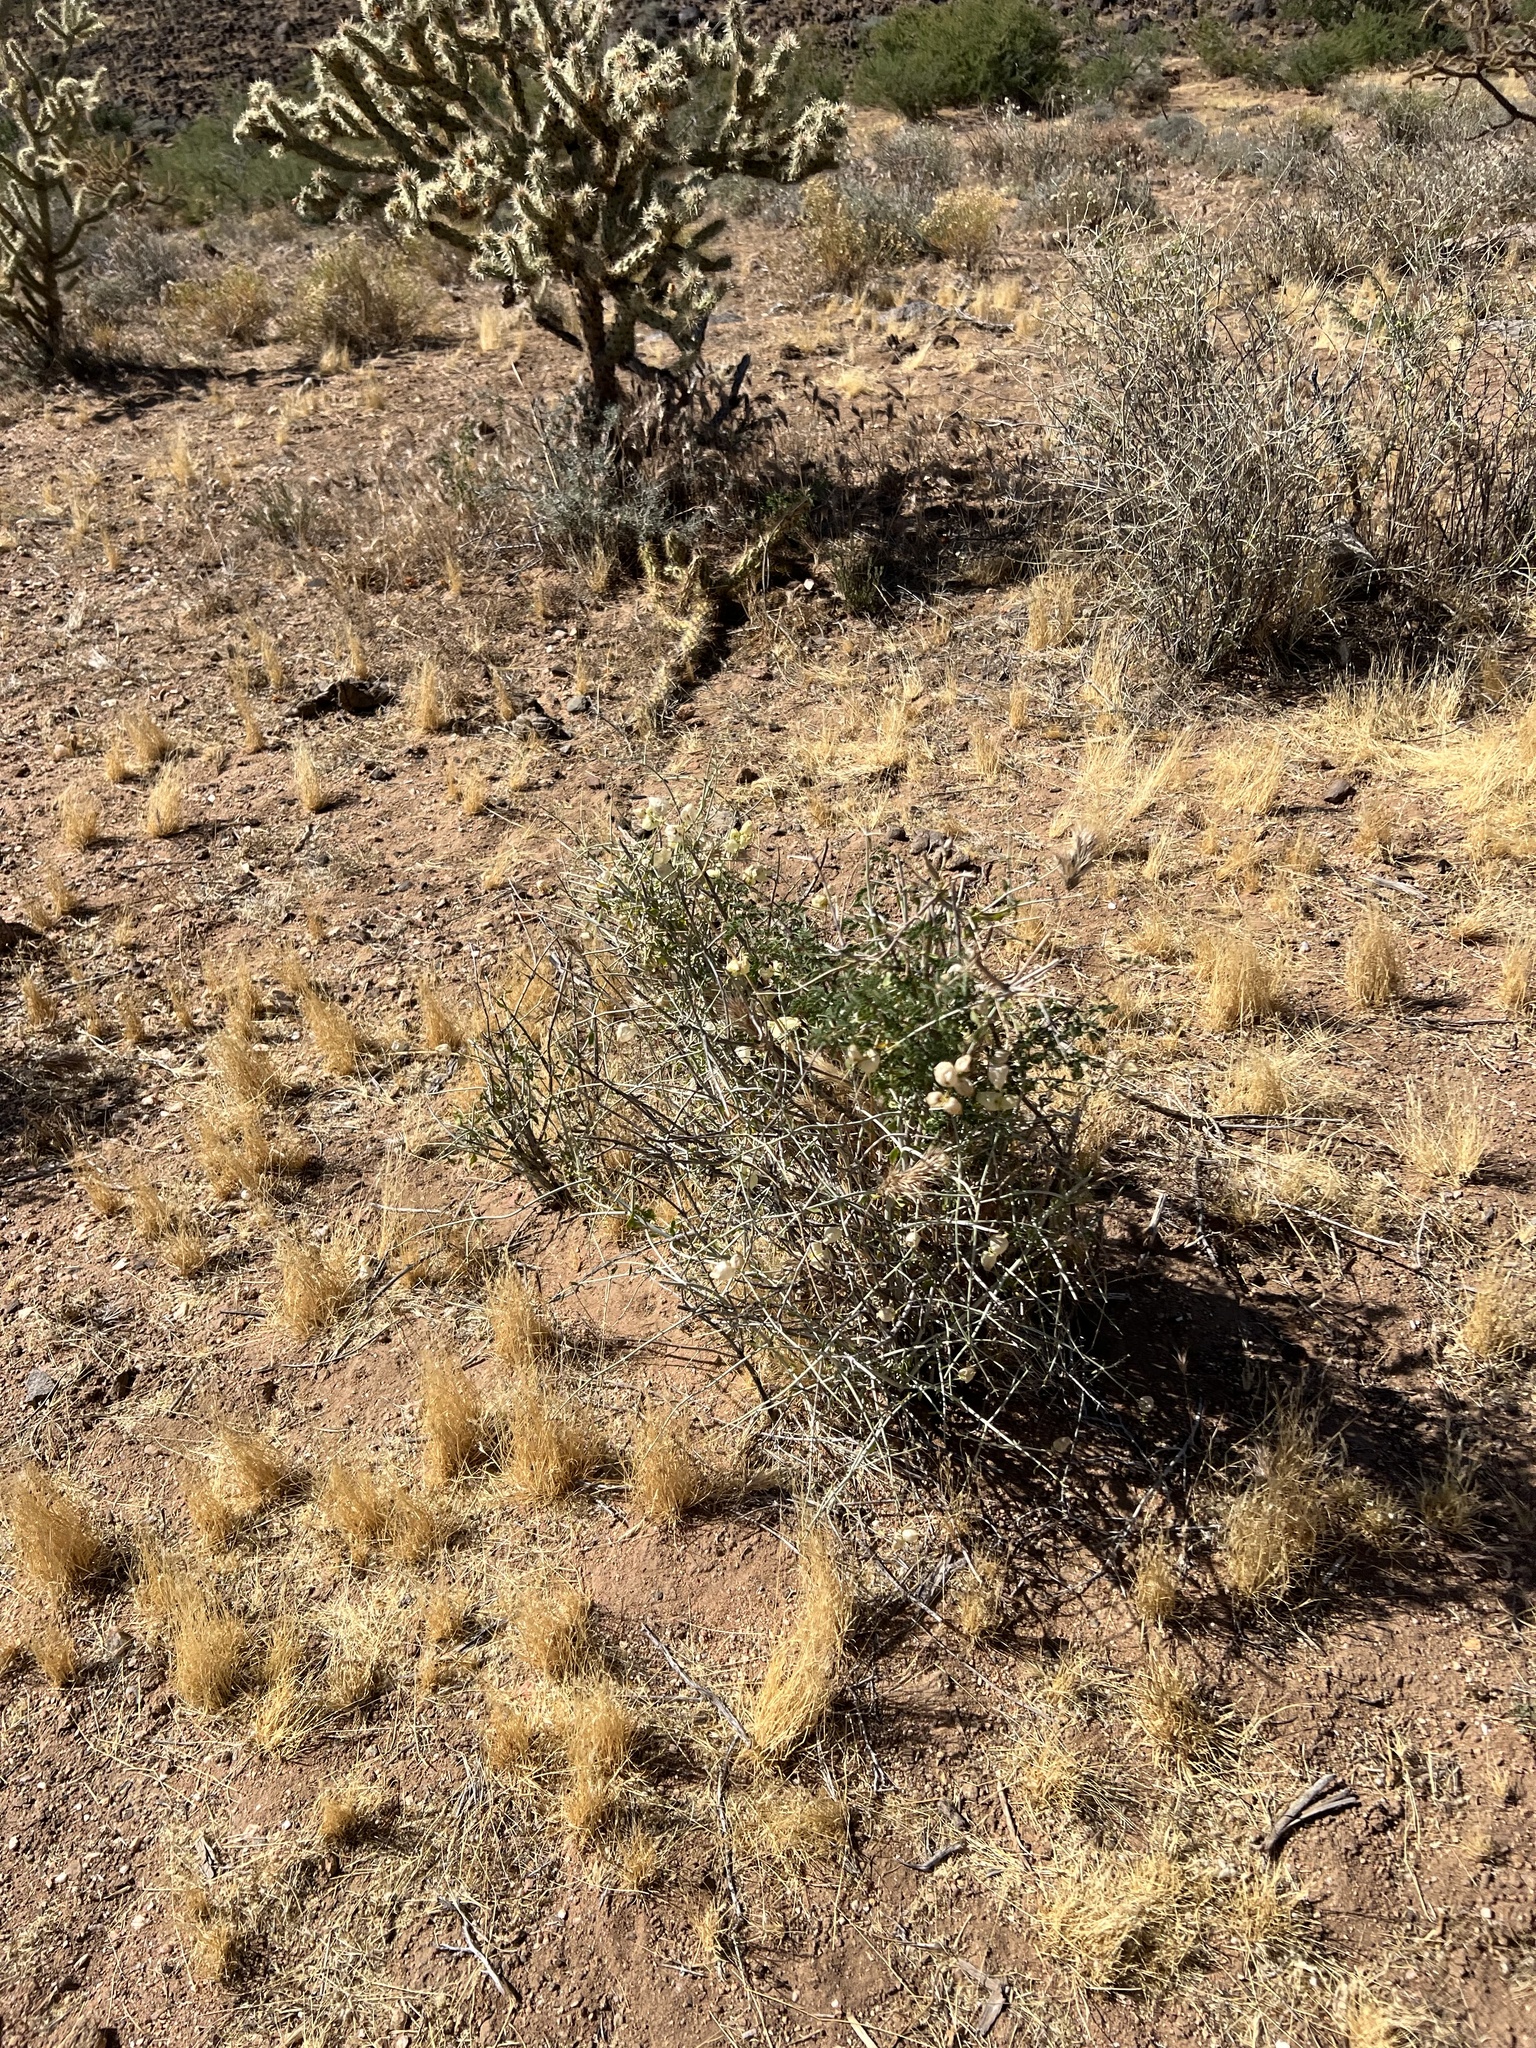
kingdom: Plantae
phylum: Tracheophyta
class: Magnoliopsida
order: Lamiales
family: Lamiaceae
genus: Scutellaria
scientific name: Scutellaria mexicana
